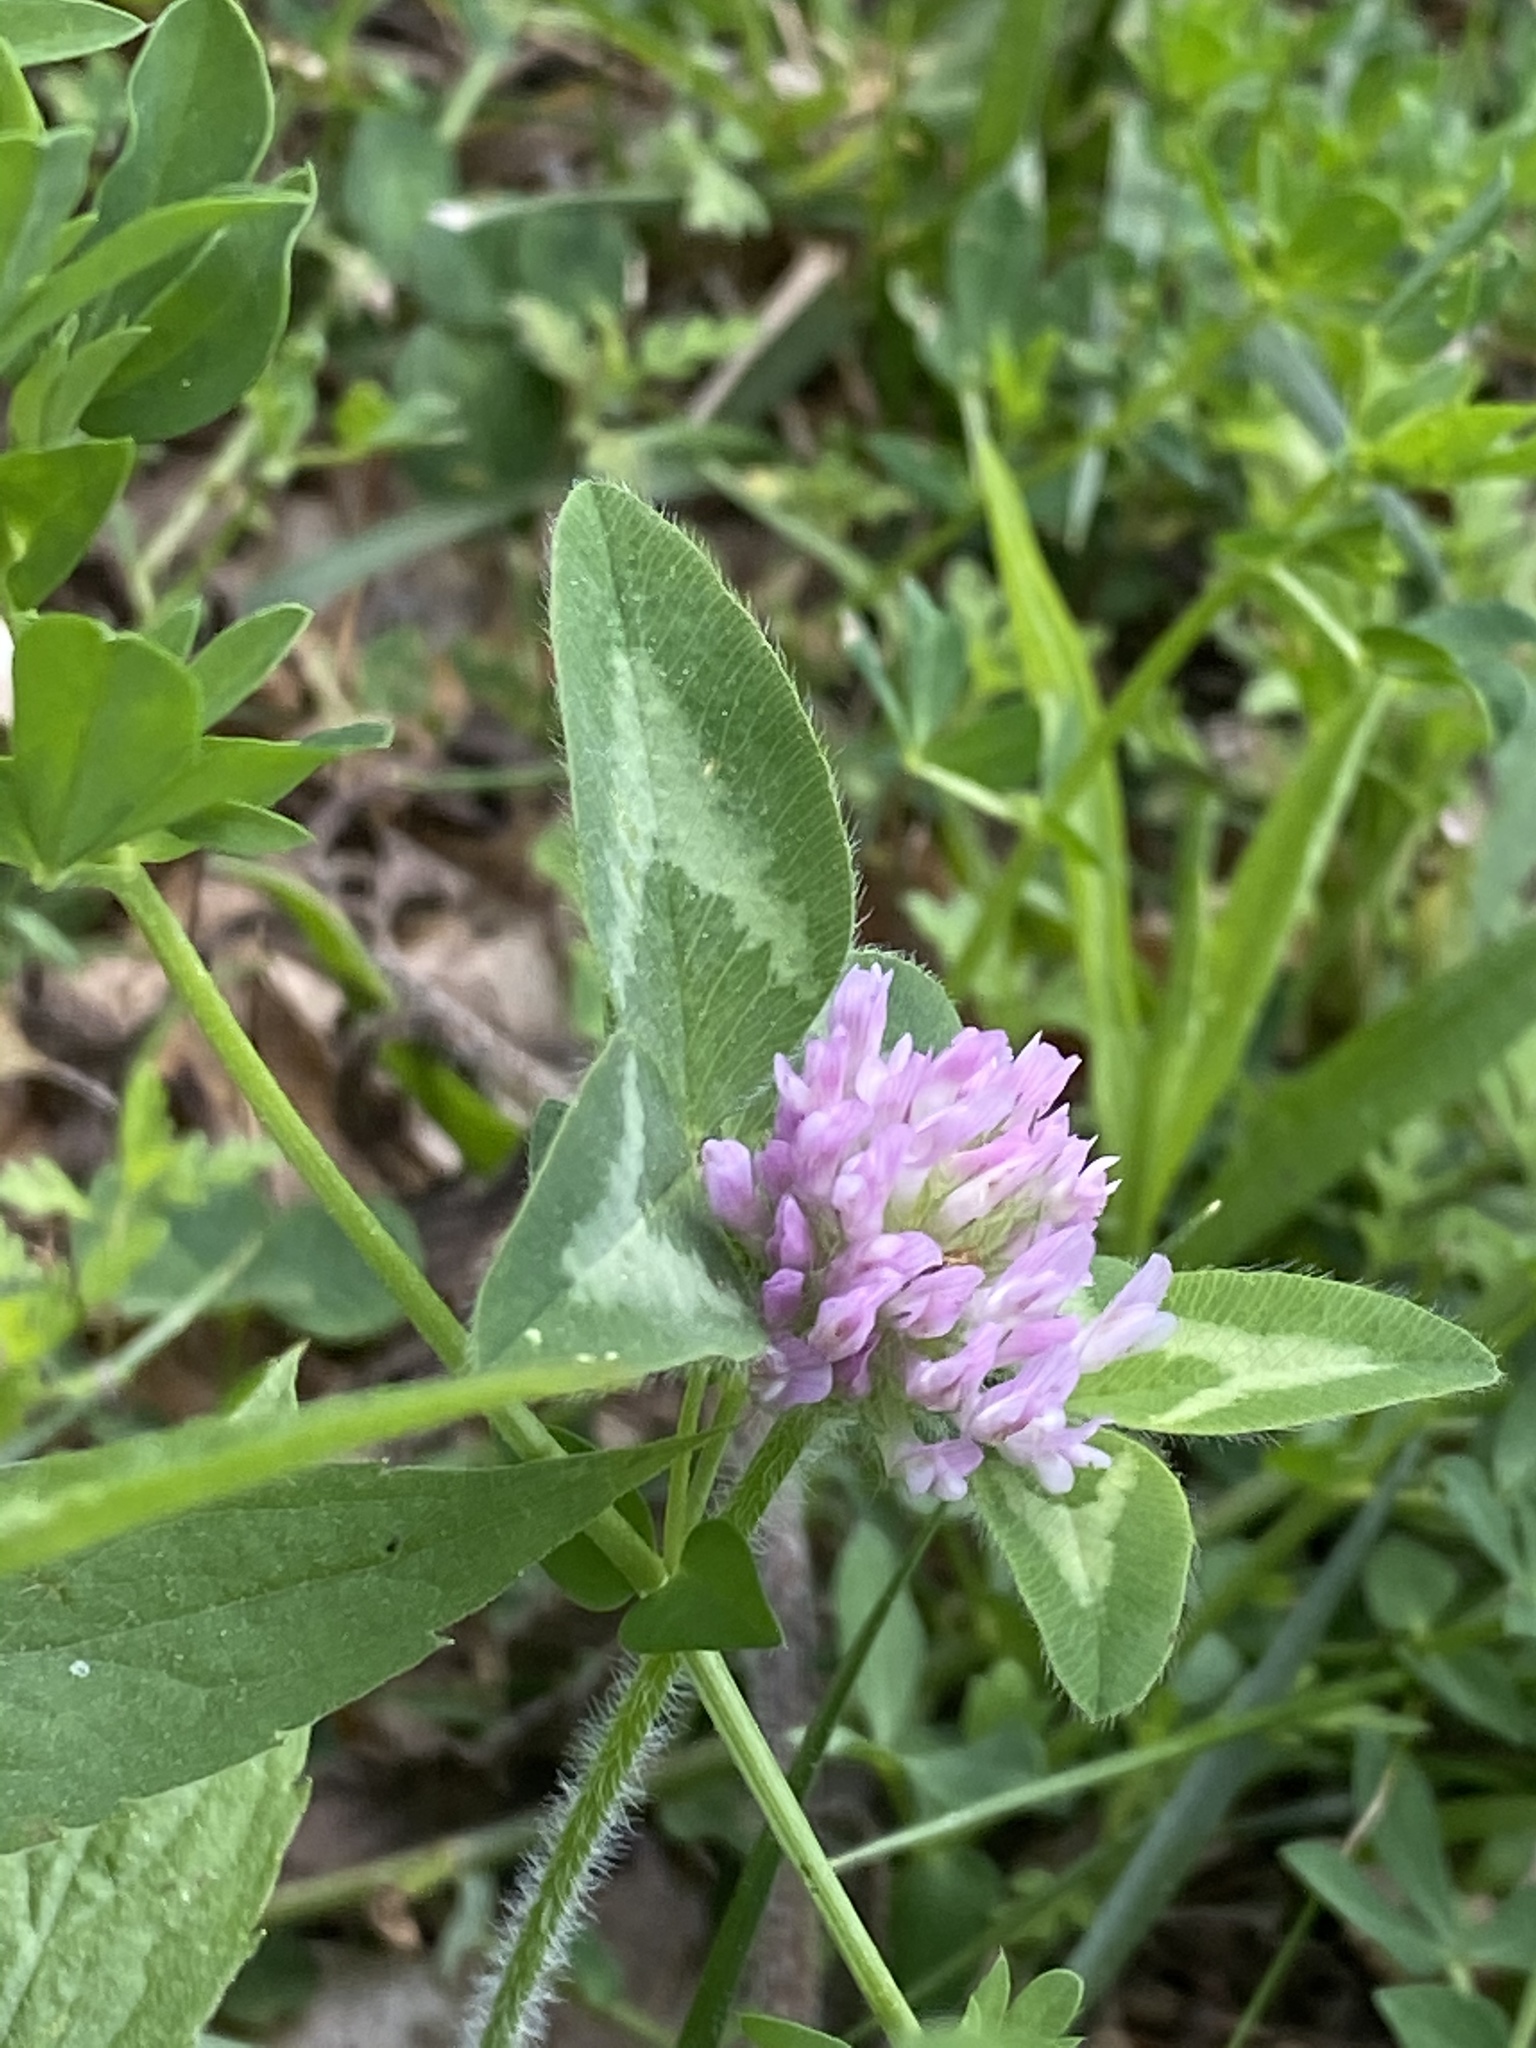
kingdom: Plantae
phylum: Tracheophyta
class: Magnoliopsida
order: Fabales
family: Fabaceae
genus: Trifolium
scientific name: Trifolium pratense
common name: Red clover
